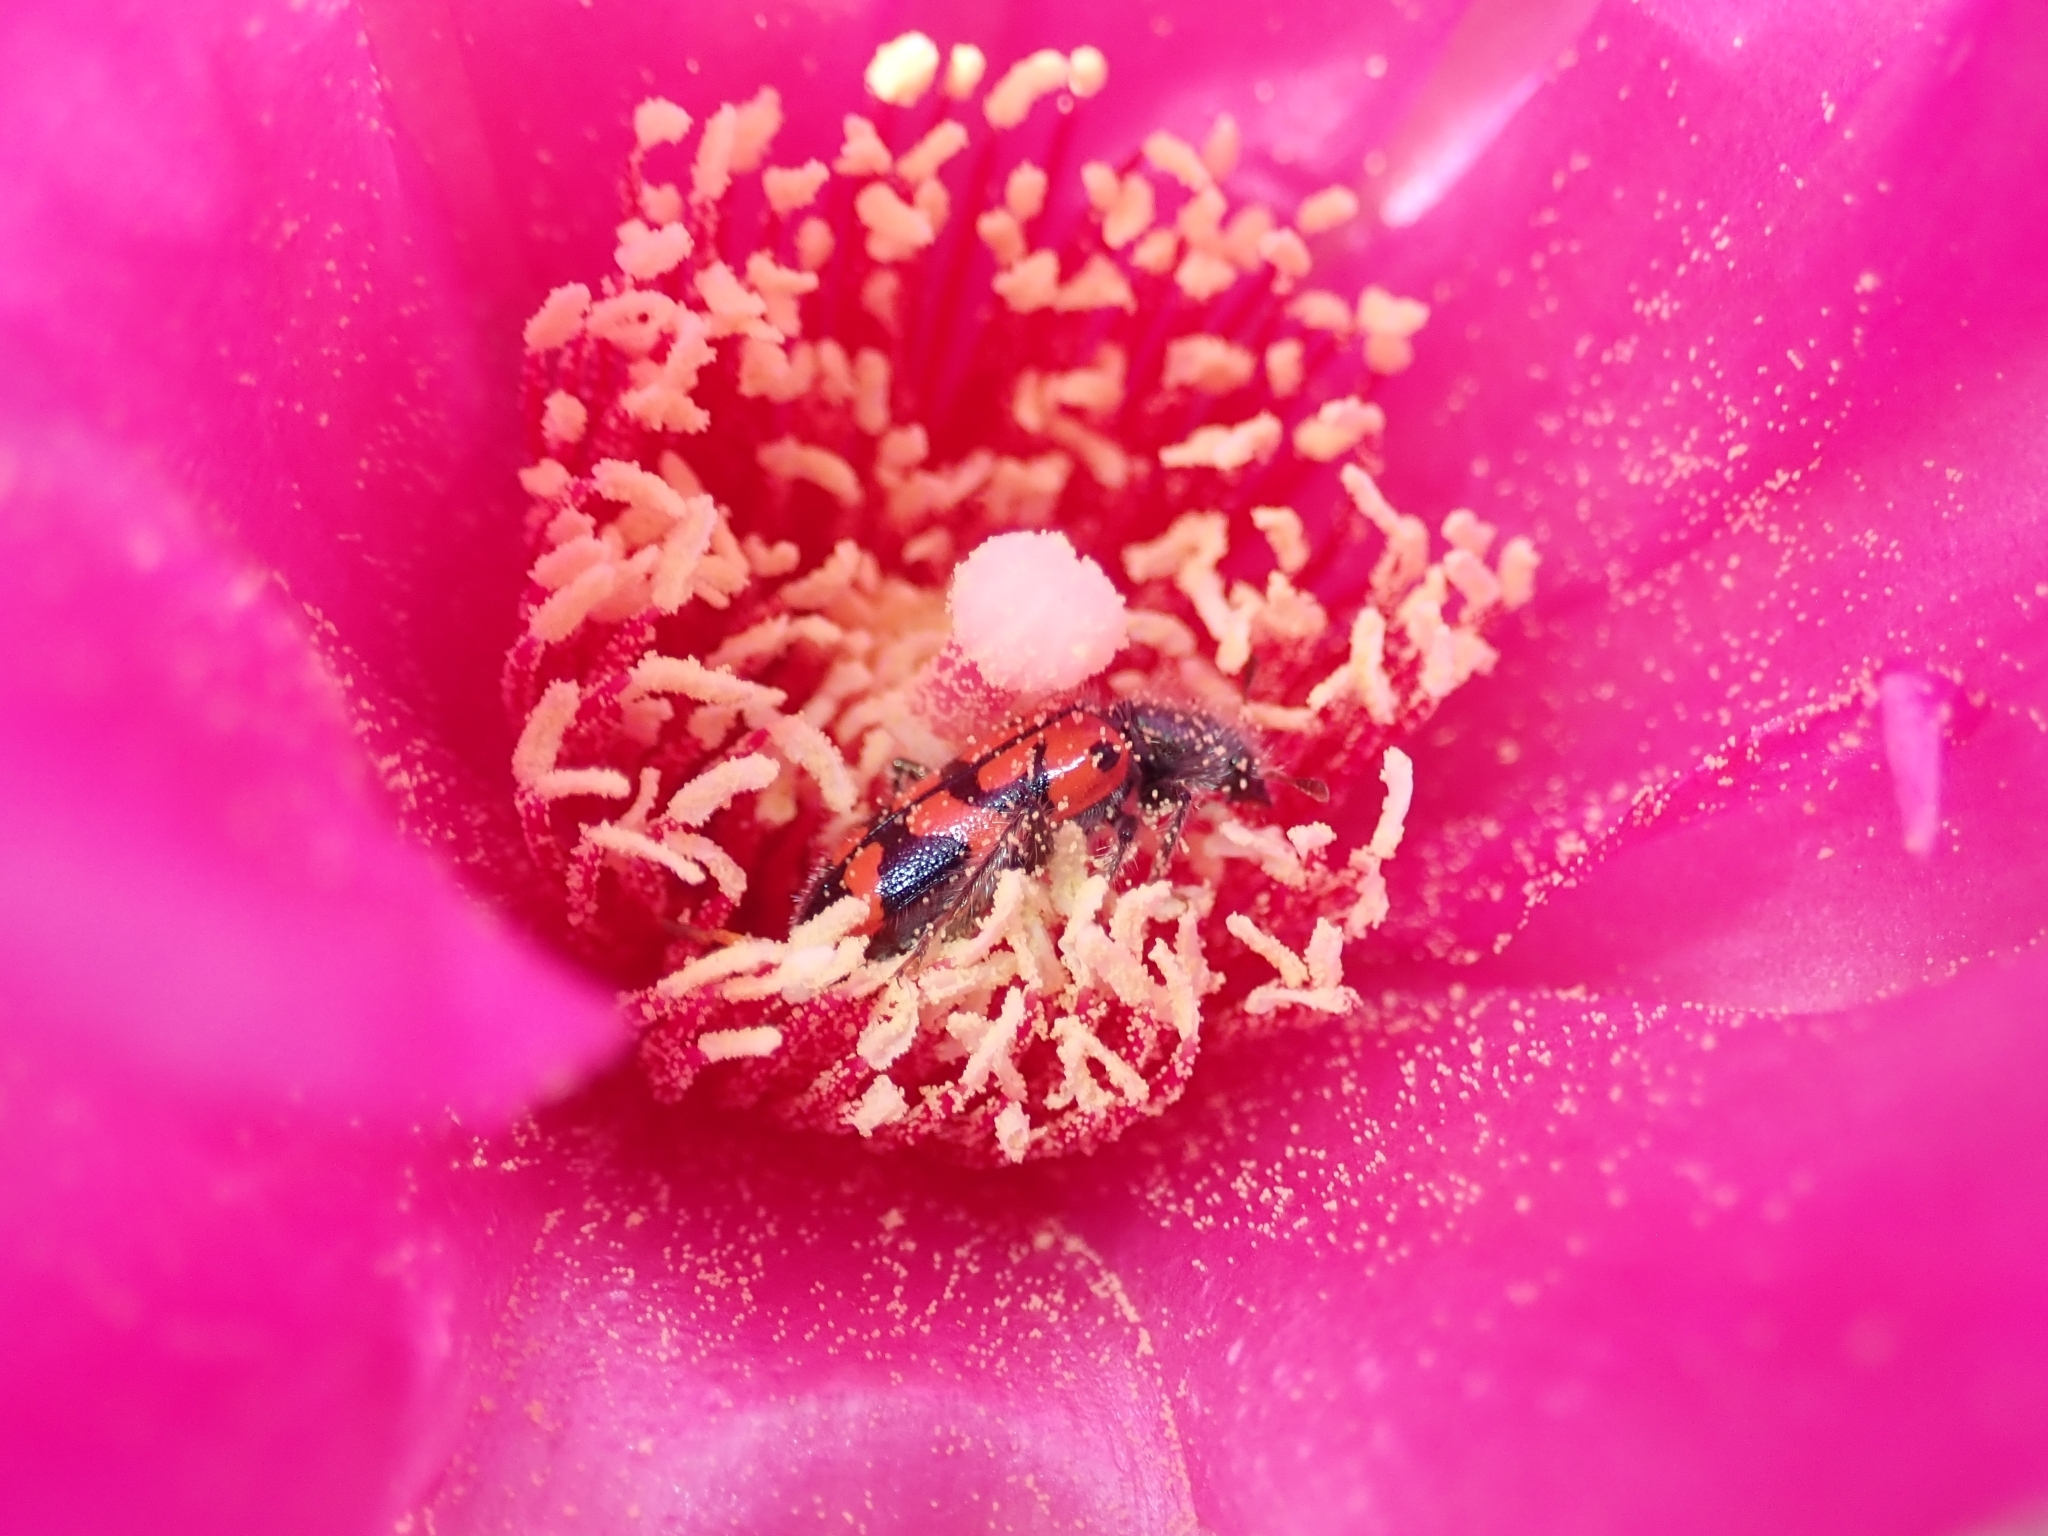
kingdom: Plantae
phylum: Tracheophyta
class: Magnoliopsida
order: Caryophyllales
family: Cactaceae
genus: Opuntia
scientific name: Opuntia basilaris
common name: Beavertail prickly-pear
